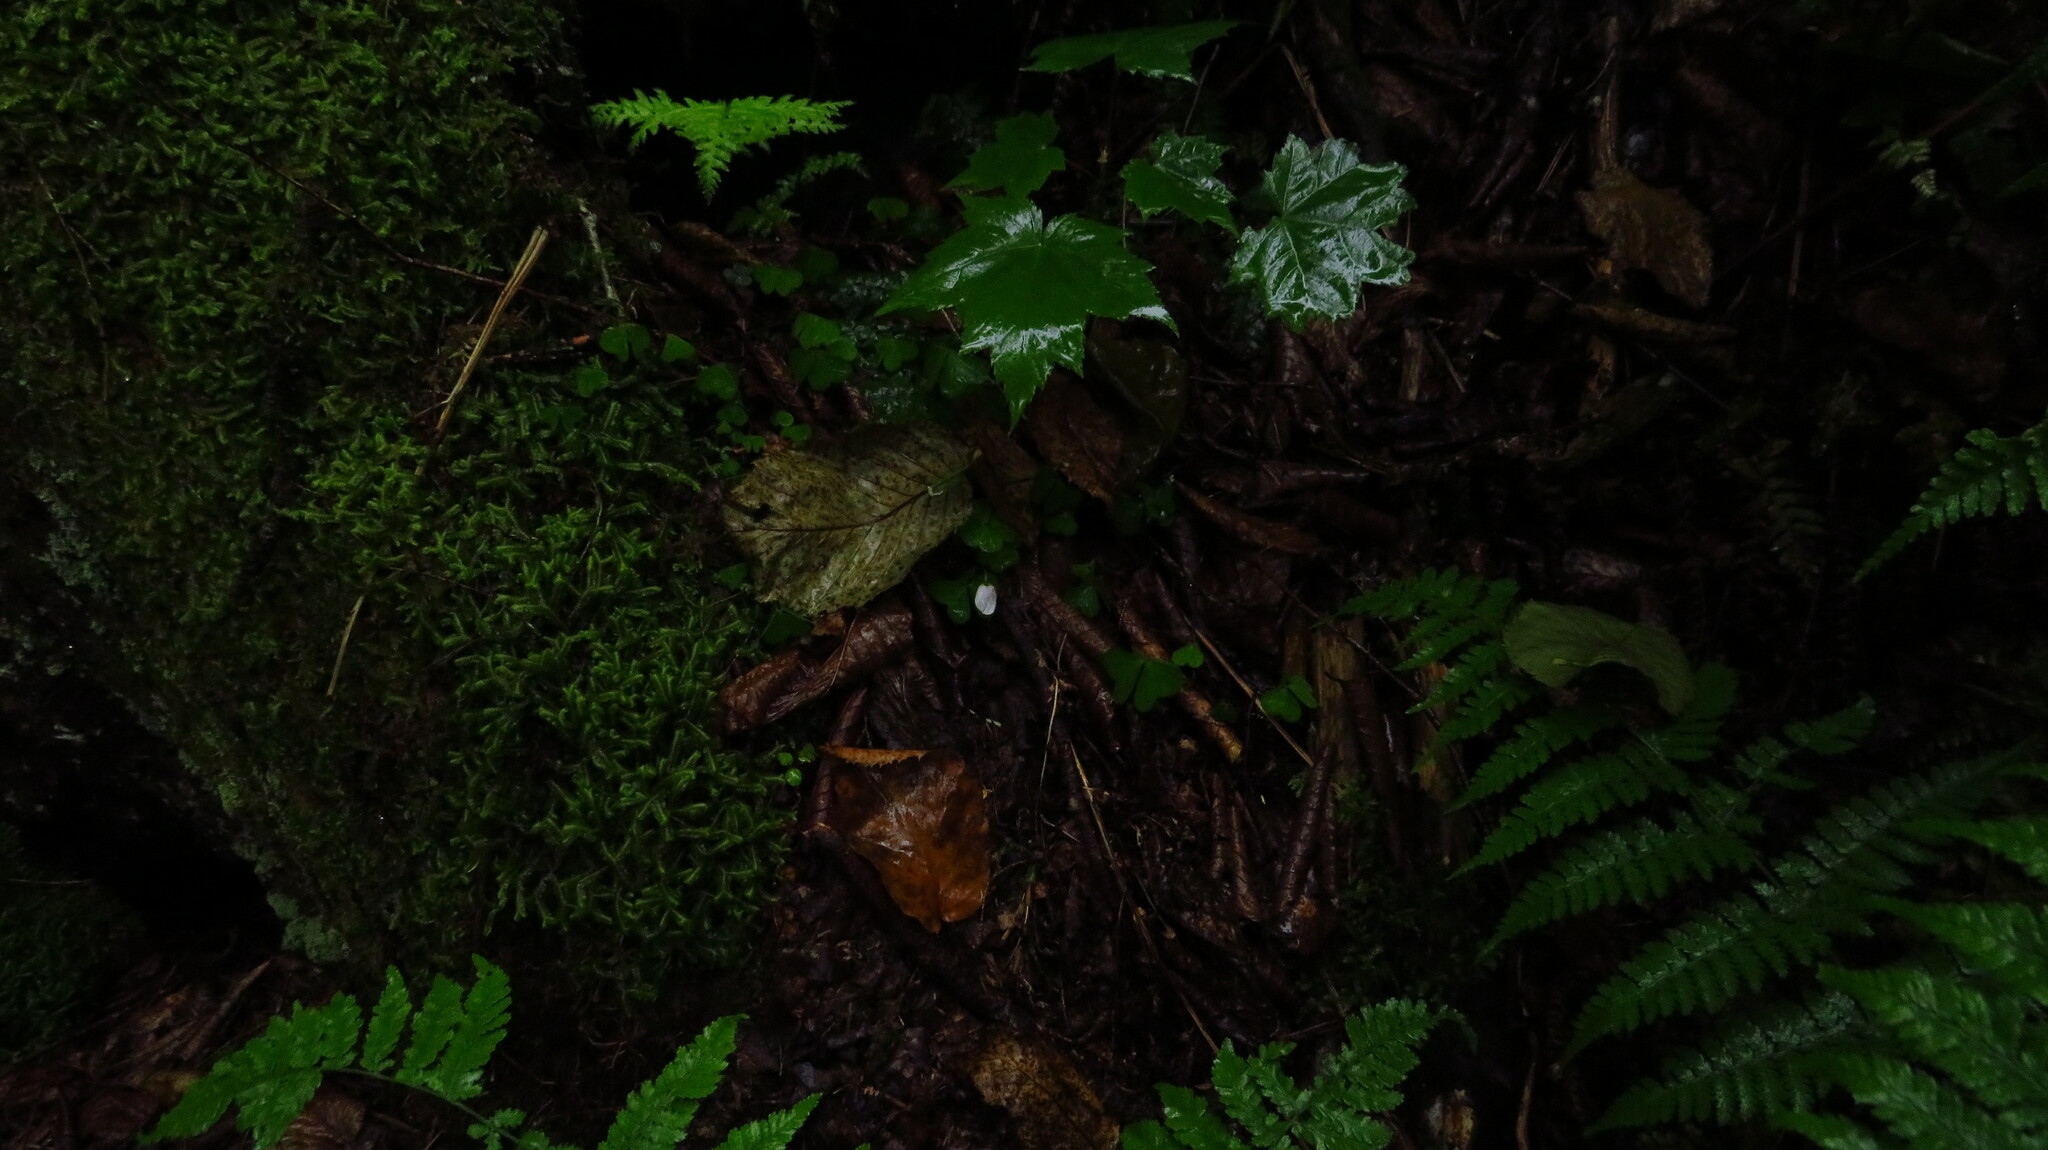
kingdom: Plantae
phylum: Tracheophyta
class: Magnoliopsida
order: Oxalidales
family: Oxalidaceae
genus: Oxalis
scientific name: Oxalis montana
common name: American wood-sorrel
